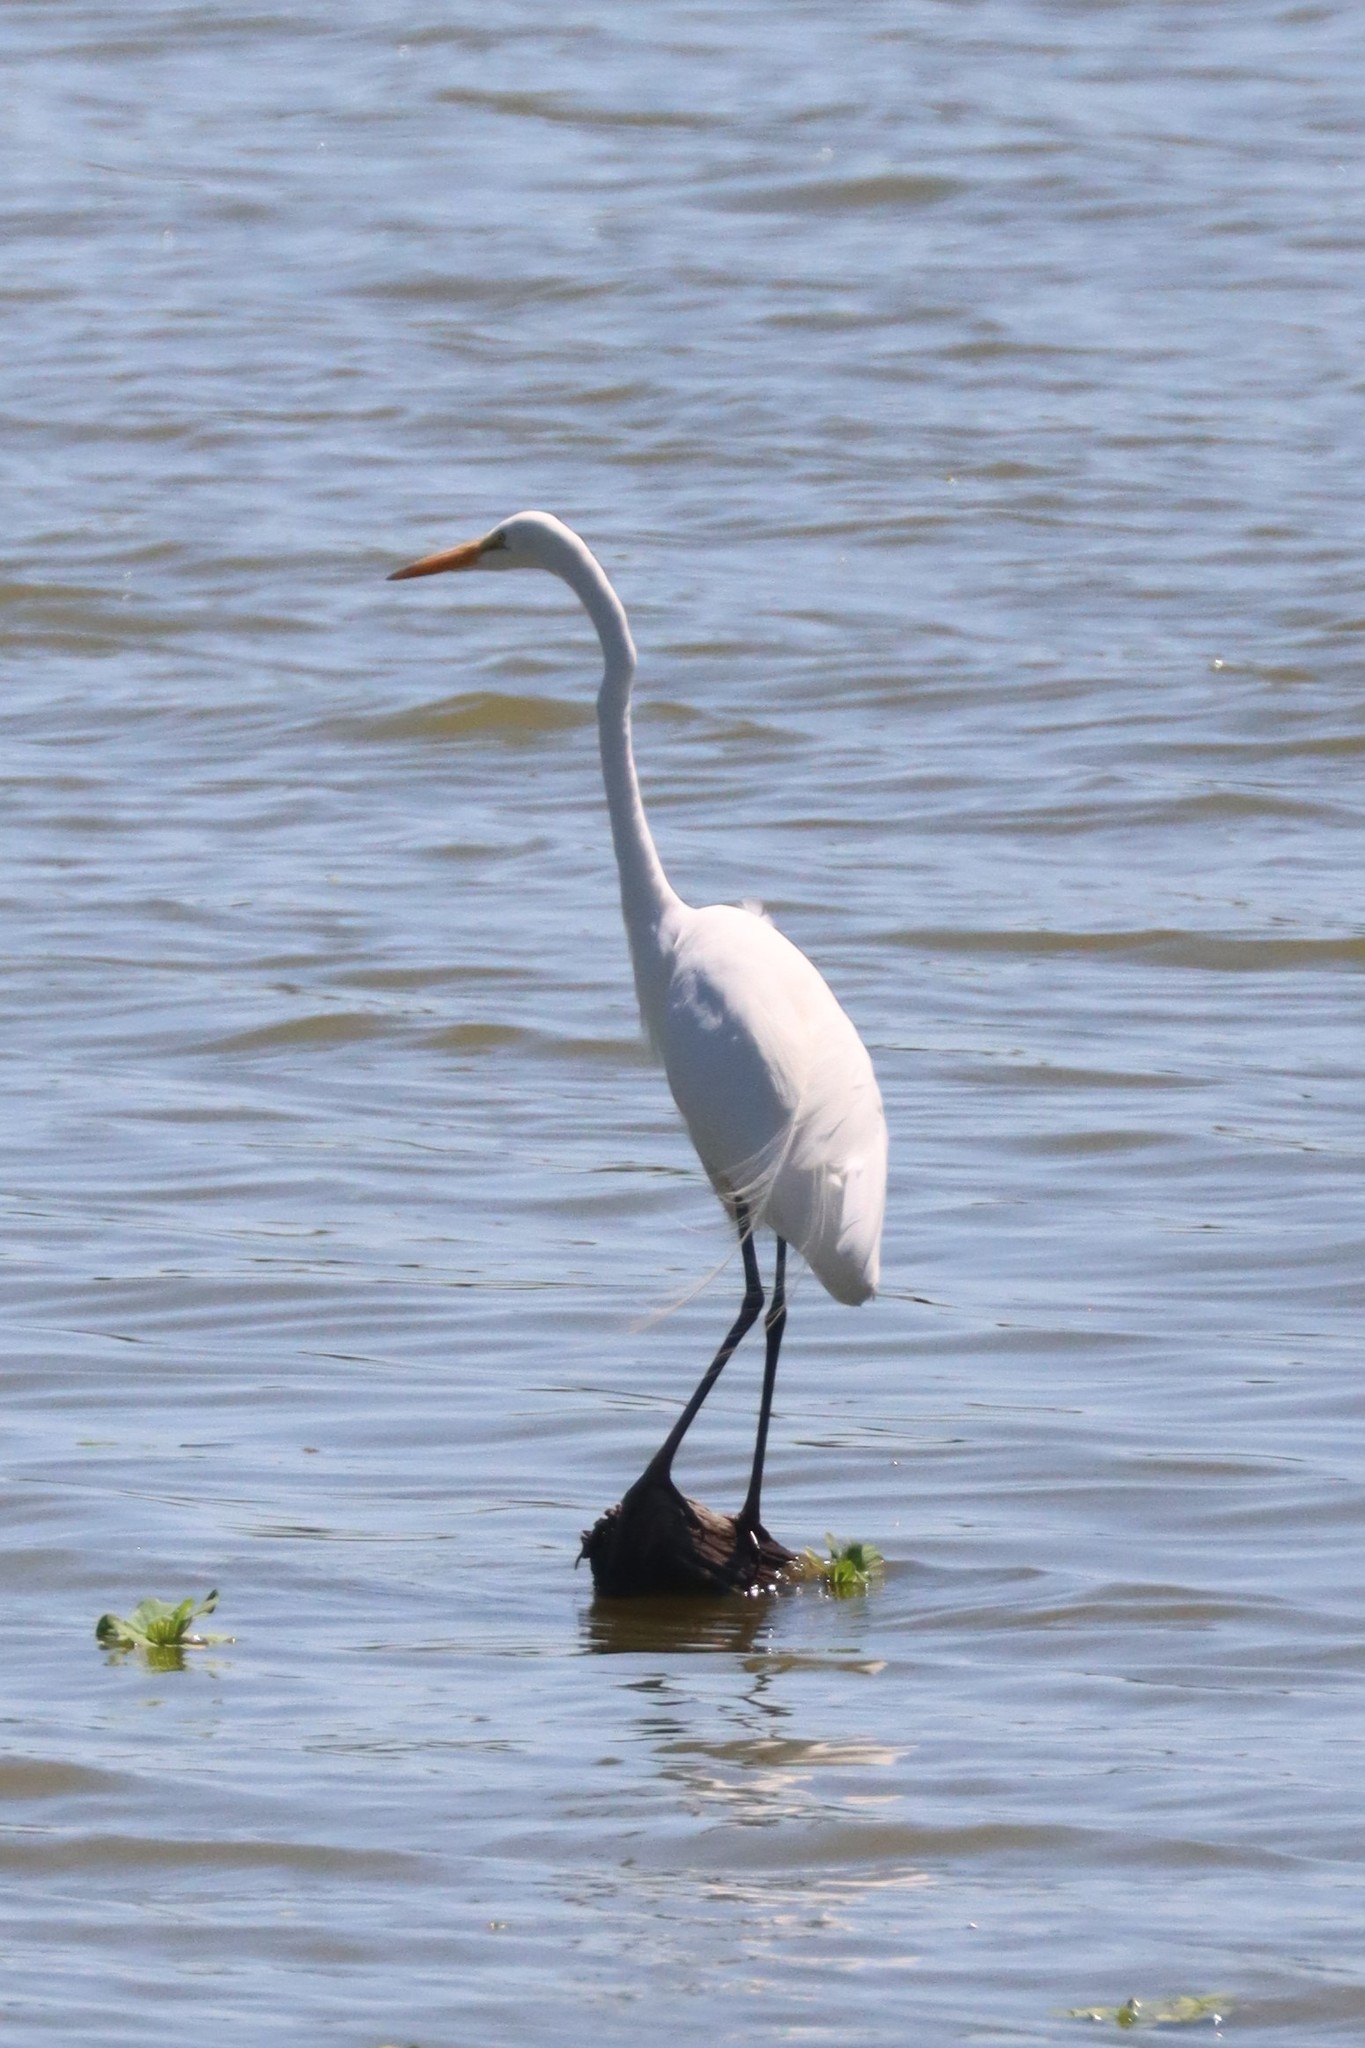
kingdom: Animalia
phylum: Chordata
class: Aves
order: Pelecaniformes
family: Ardeidae
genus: Ardea
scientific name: Ardea alba
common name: Great egret
